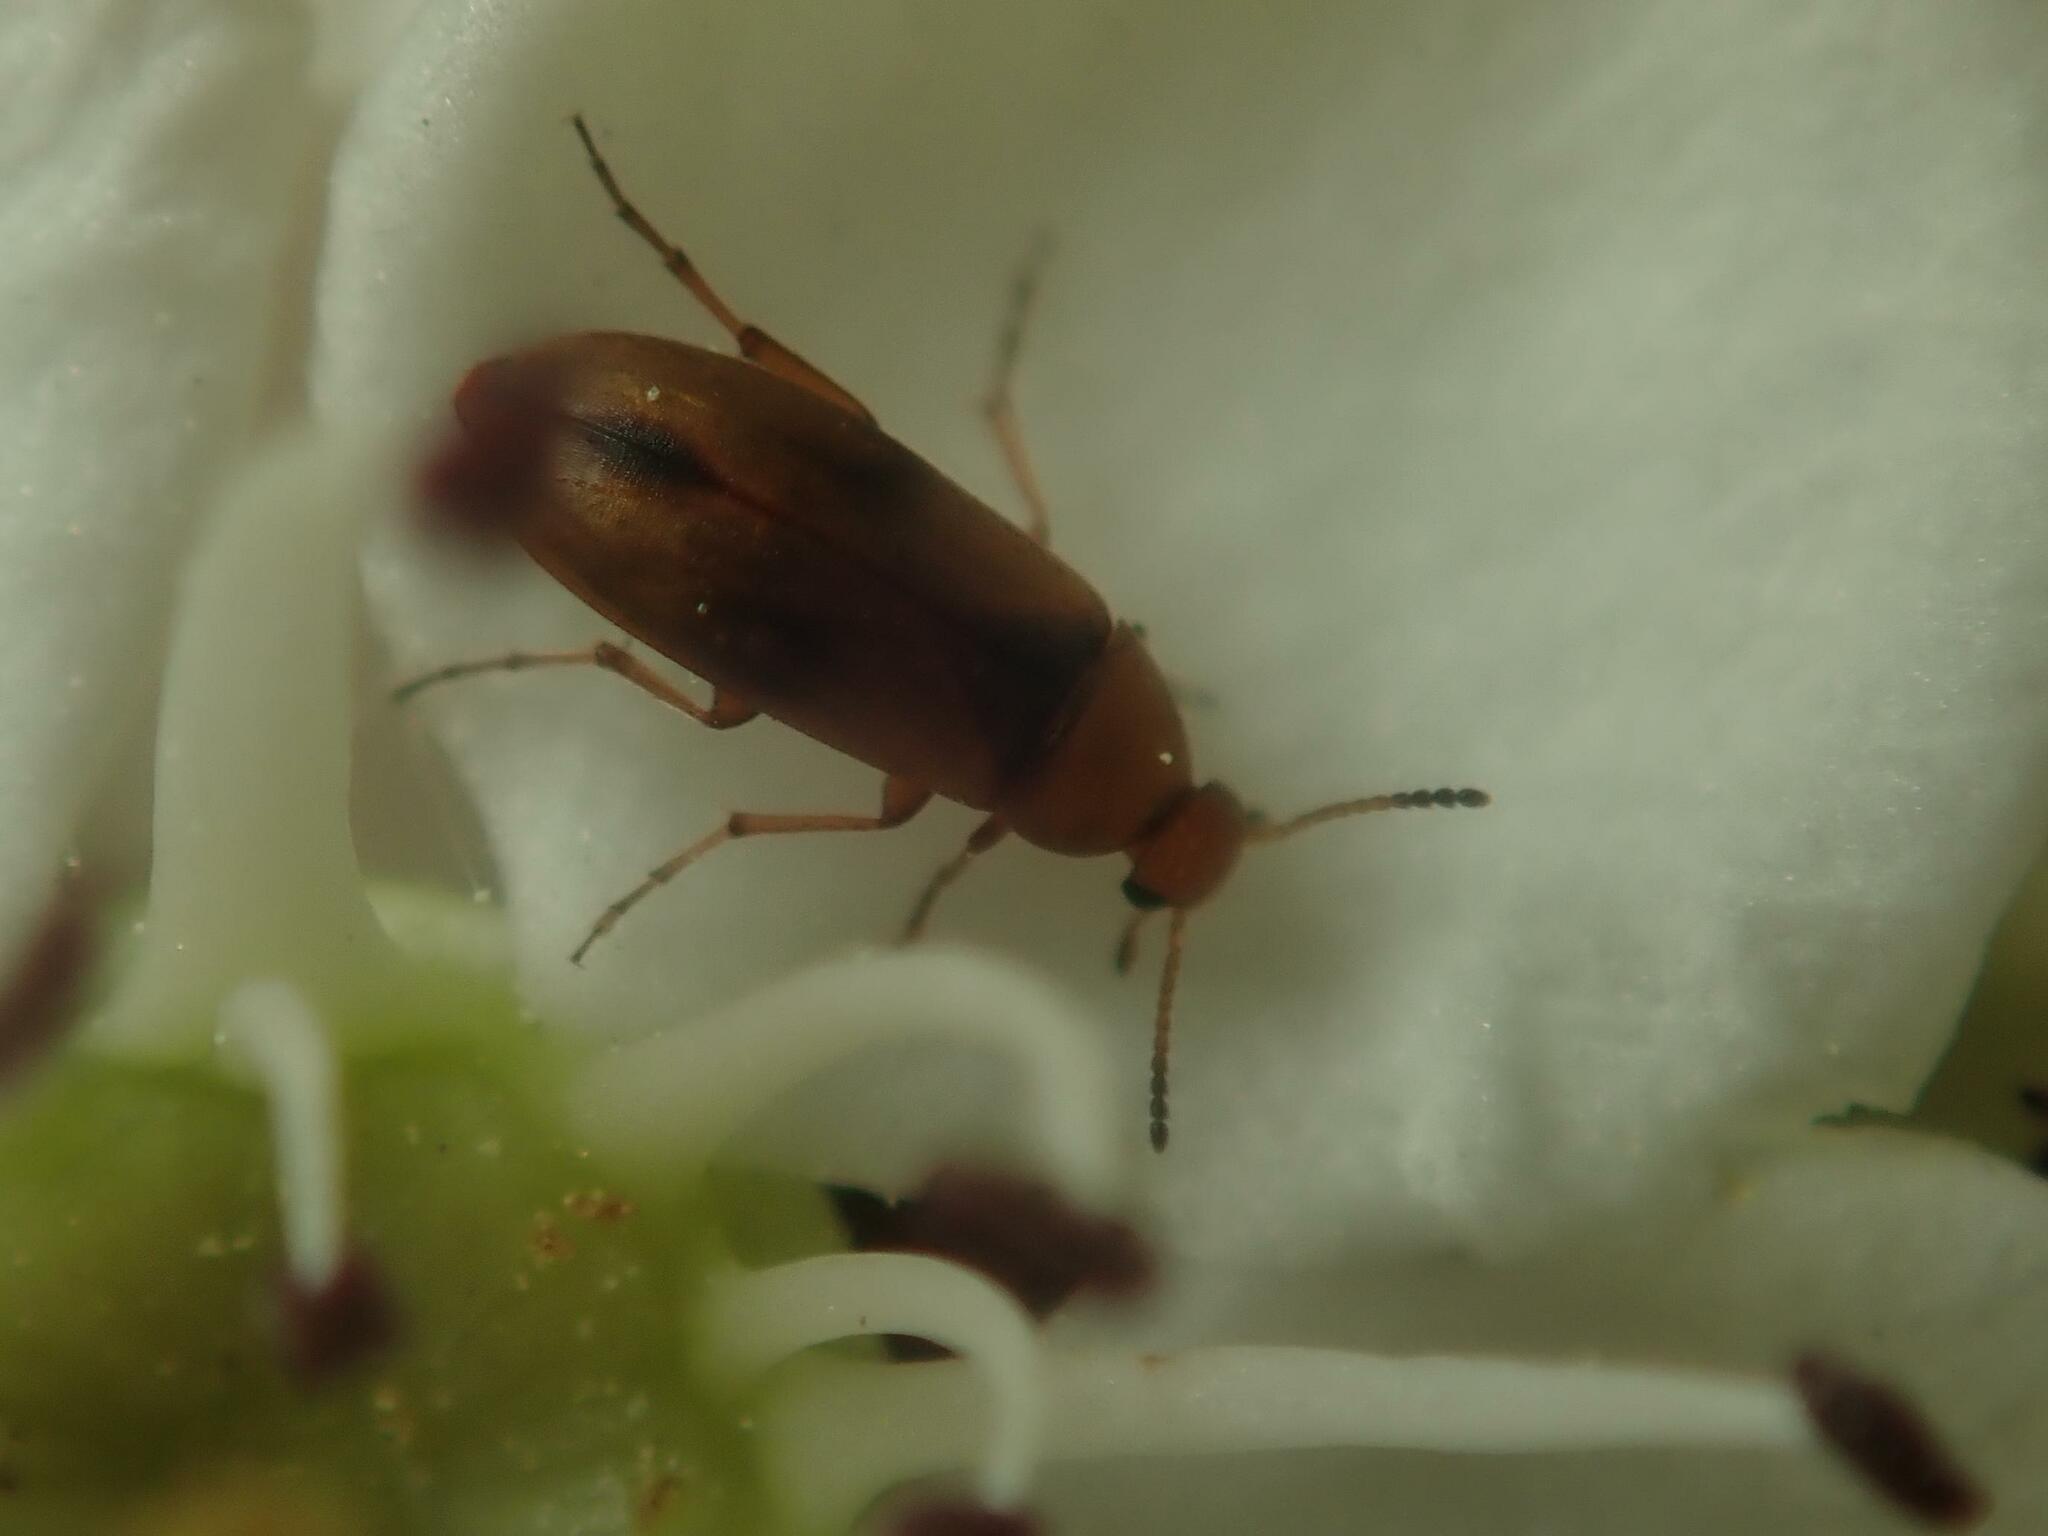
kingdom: Animalia
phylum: Arthropoda
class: Insecta
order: Coleoptera
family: Scraptiidae
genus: Anaspis
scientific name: Anaspis maculata
